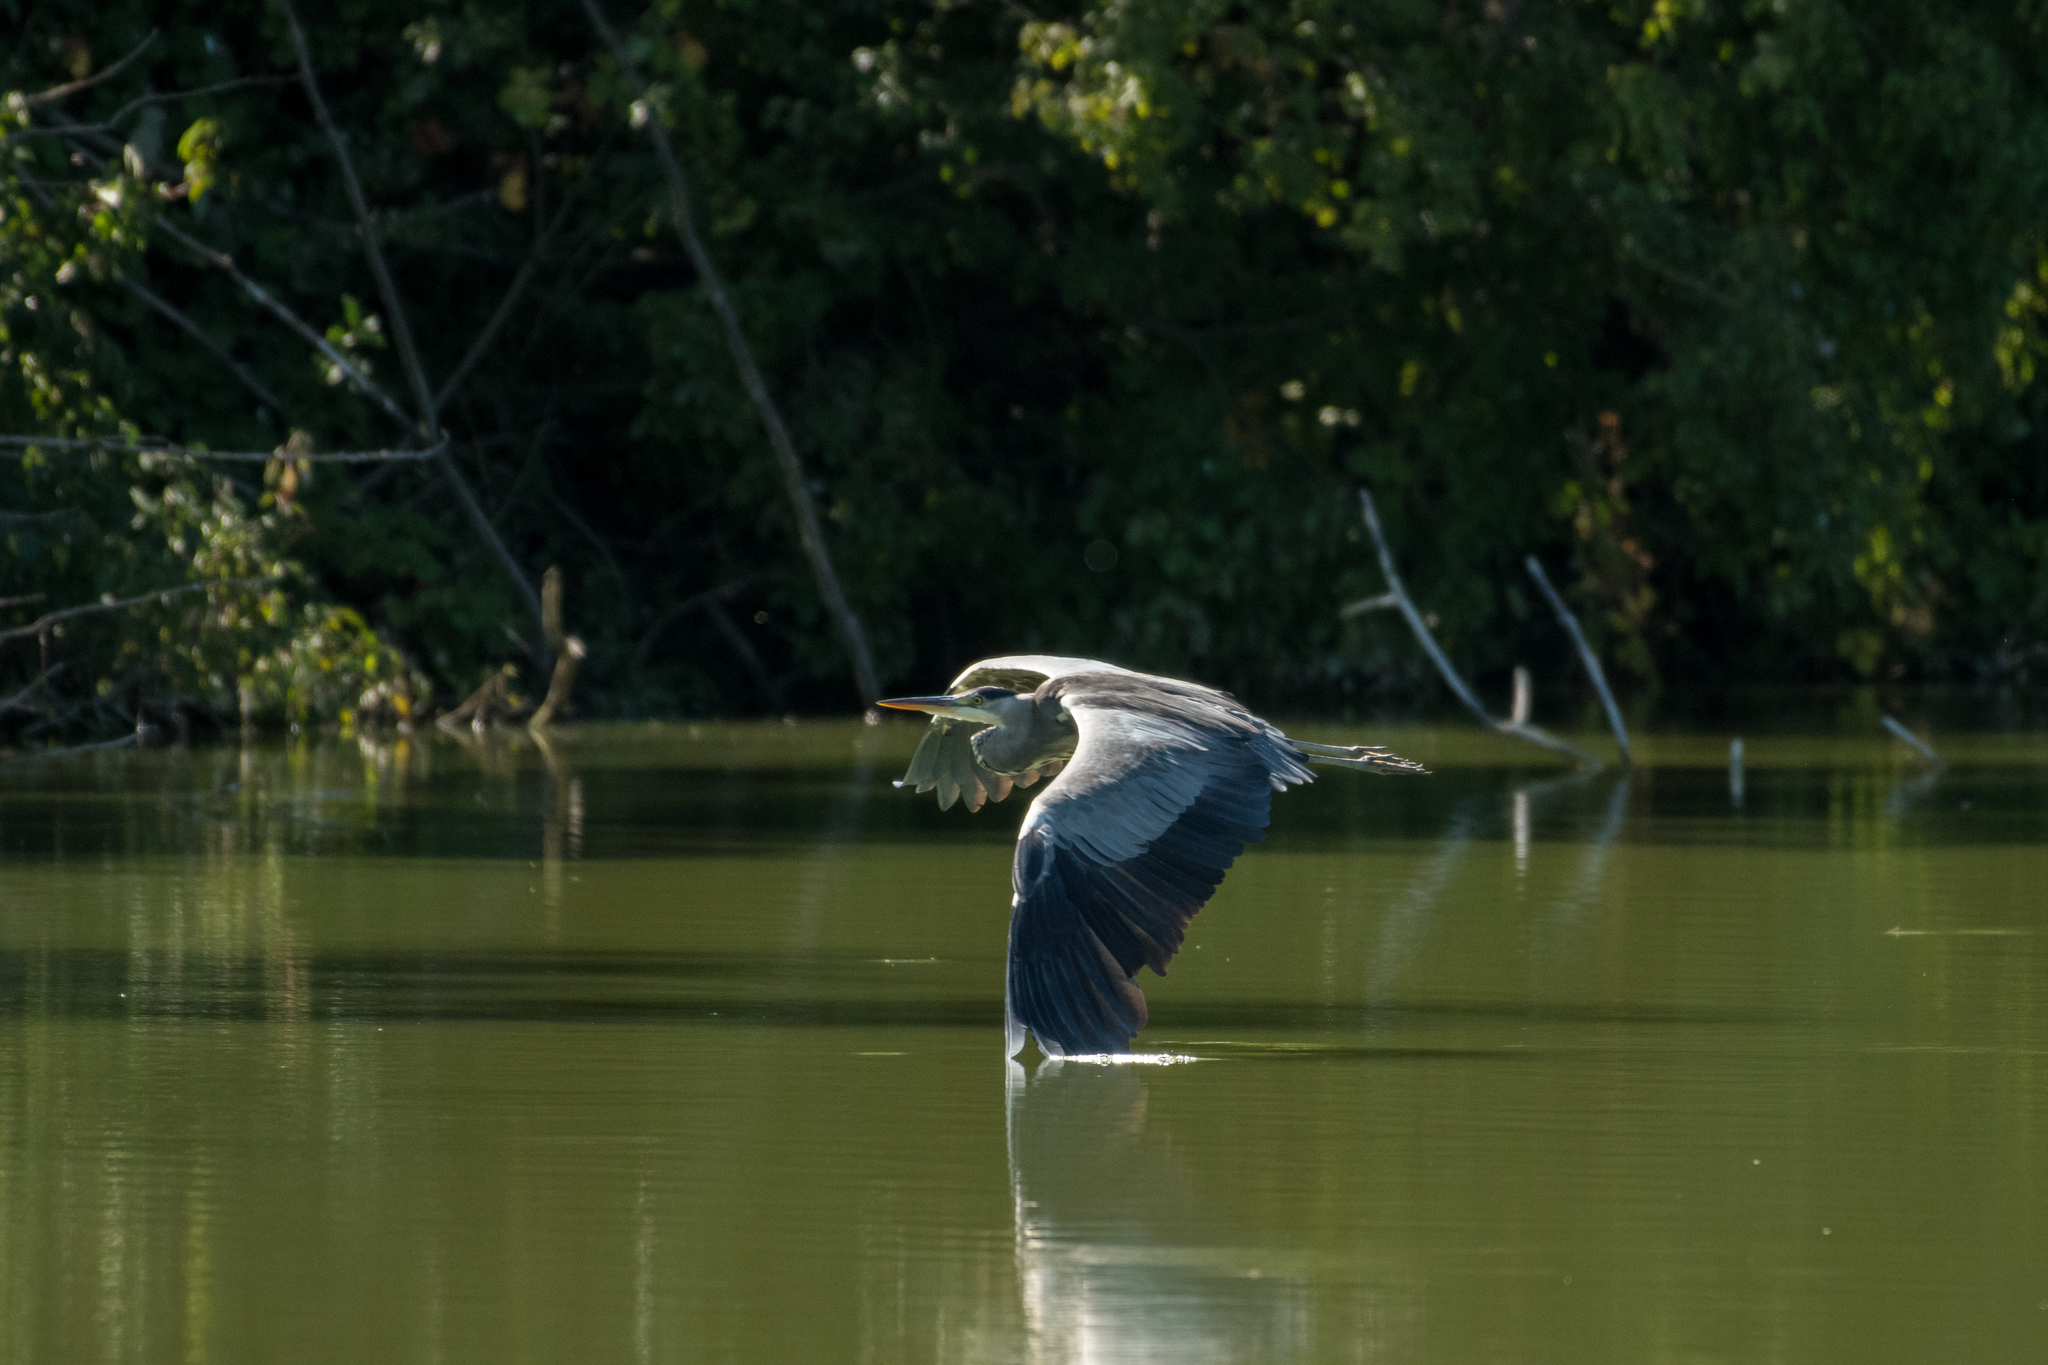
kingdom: Animalia
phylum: Chordata
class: Aves
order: Pelecaniformes
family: Ardeidae
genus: Ardea
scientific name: Ardea cinerea
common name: Grey heron
